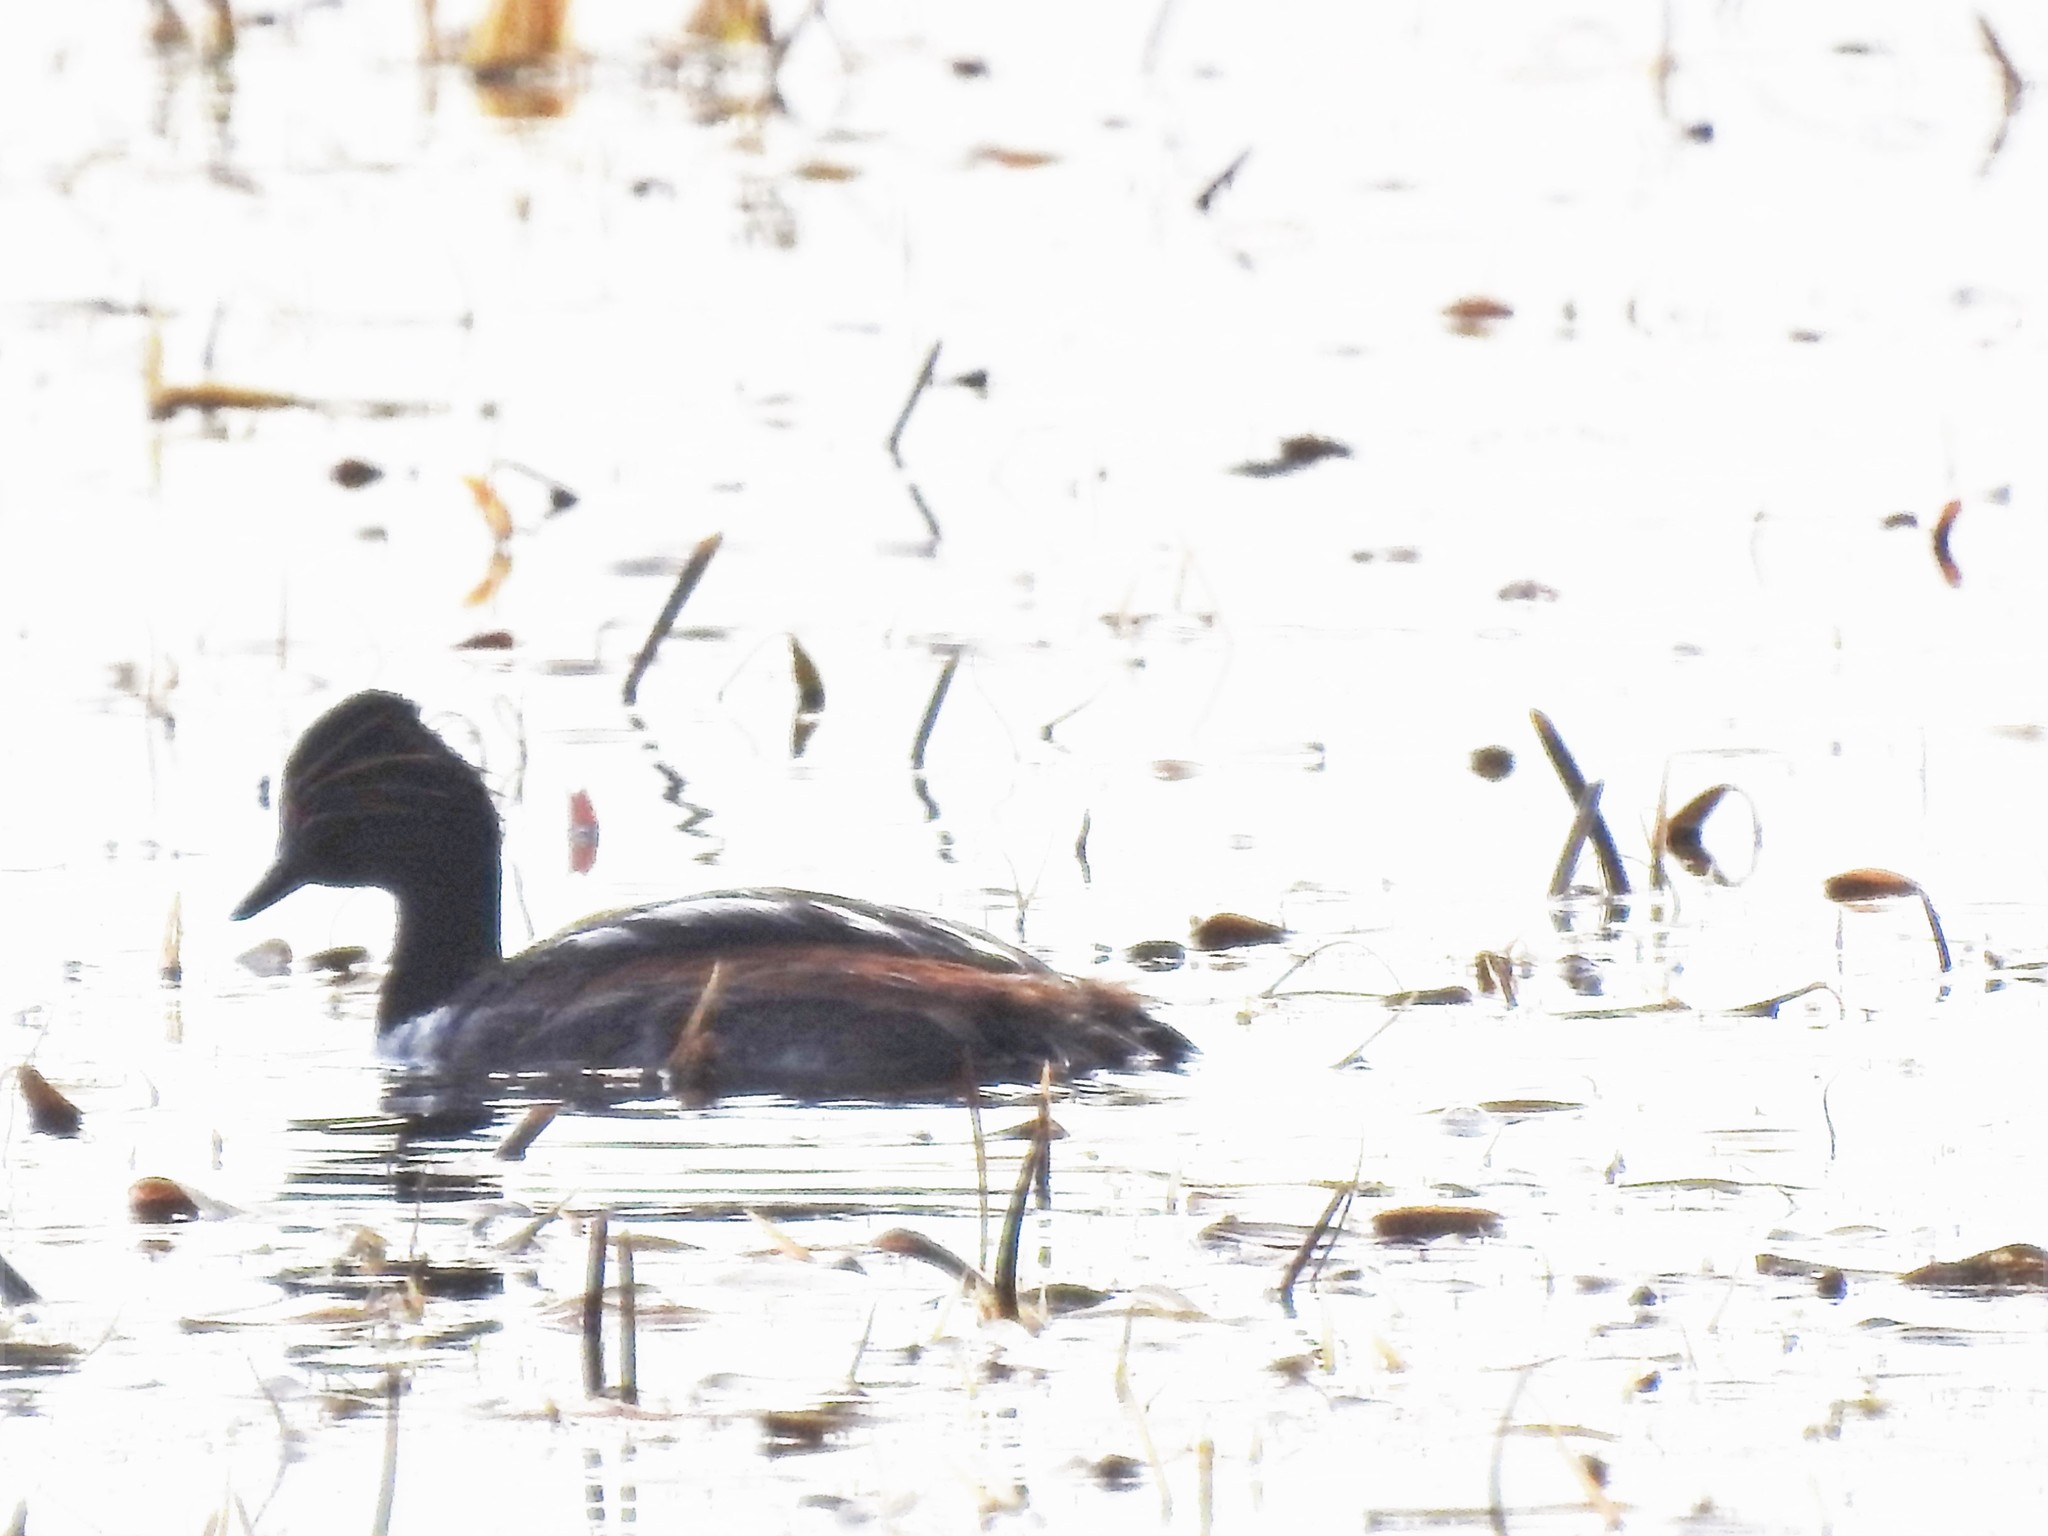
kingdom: Animalia
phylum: Chordata
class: Aves
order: Podicipediformes
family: Podicipedidae
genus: Podiceps
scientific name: Podiceps nigricollis
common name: Black-necked grebe
